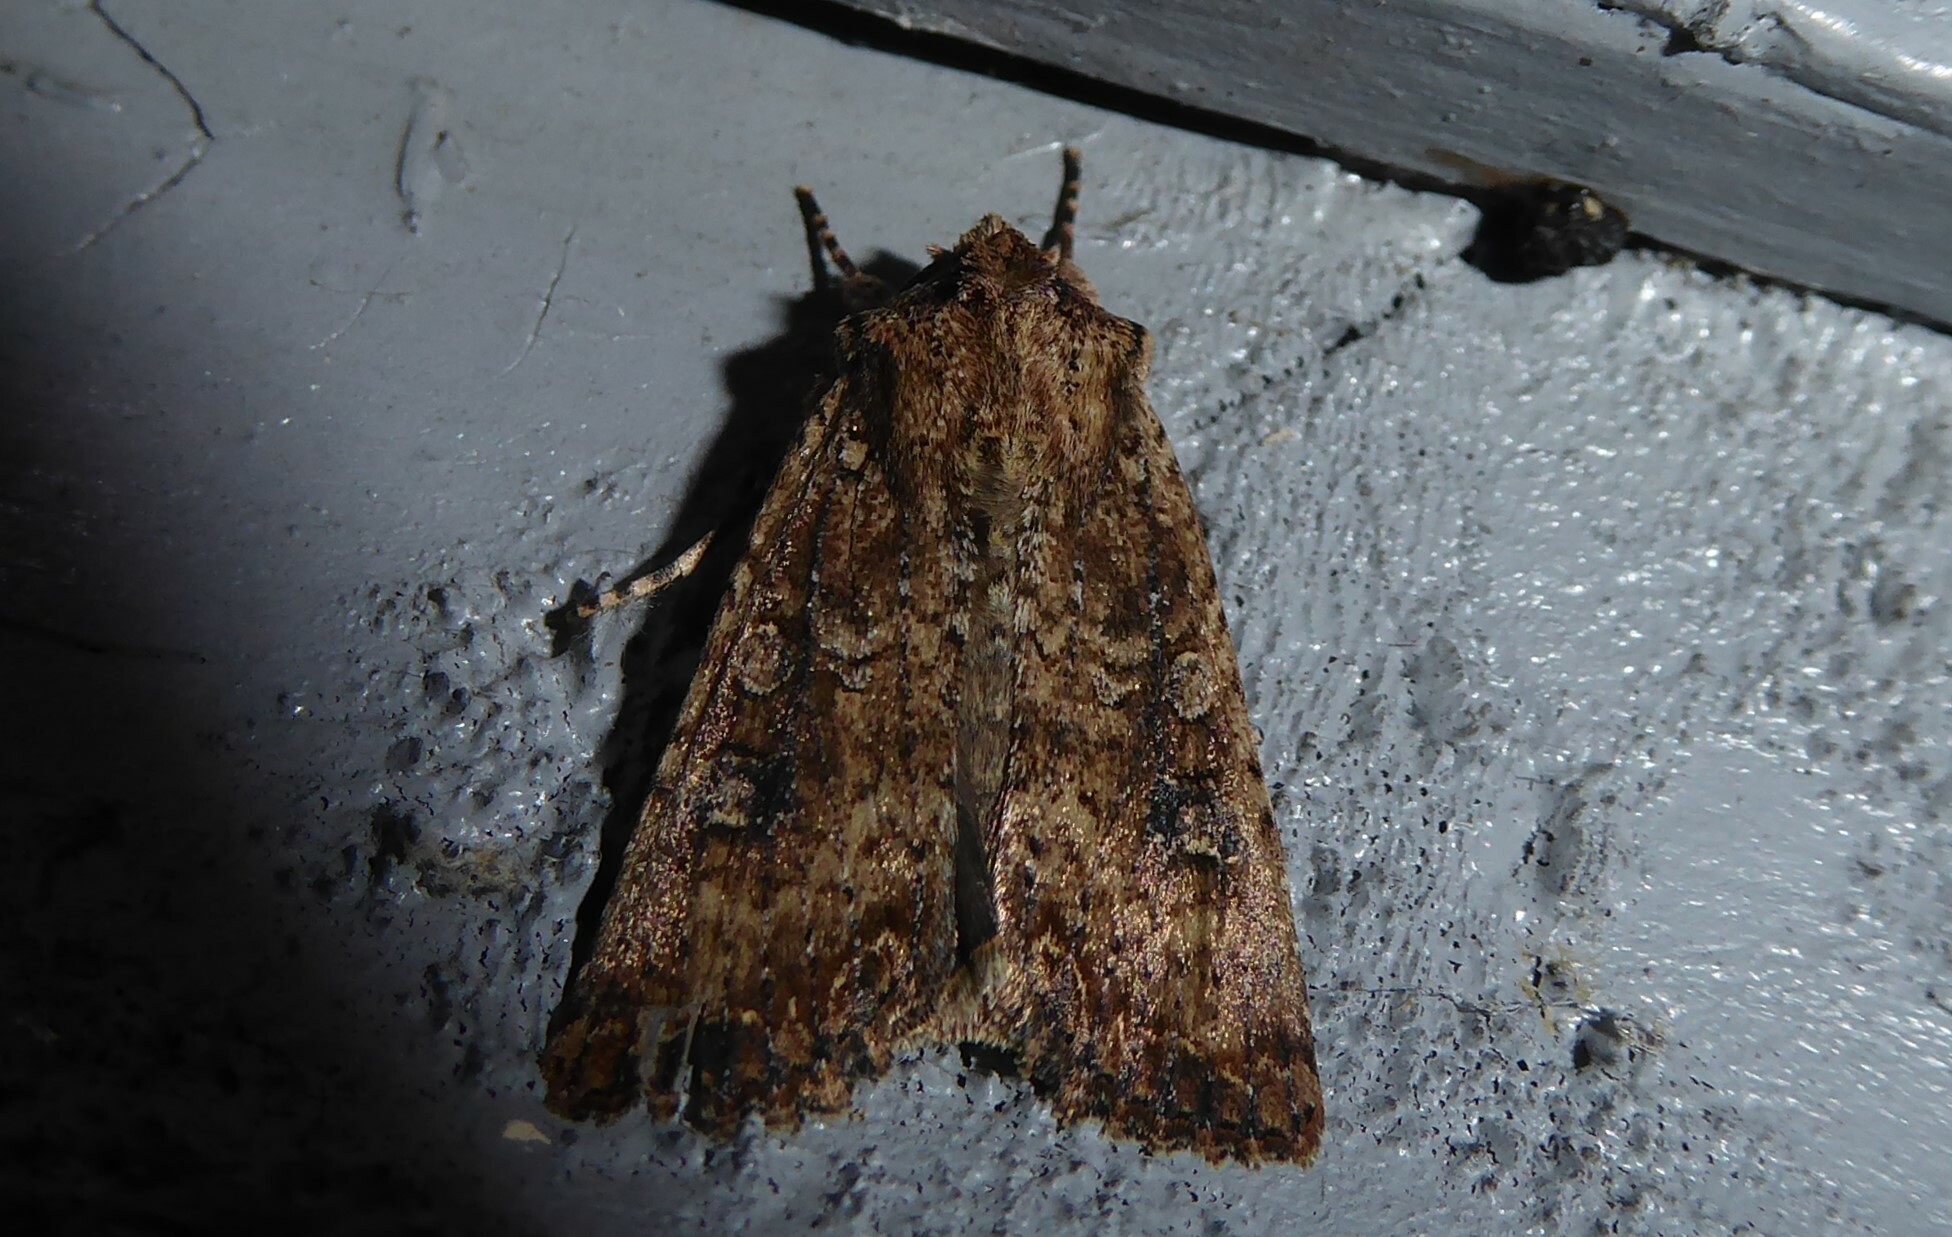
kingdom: Animalia
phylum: Arthropoda
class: Insecta
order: Lepidoptera
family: Noctuidae
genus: Ichneutica
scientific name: Ichneutica morosa
